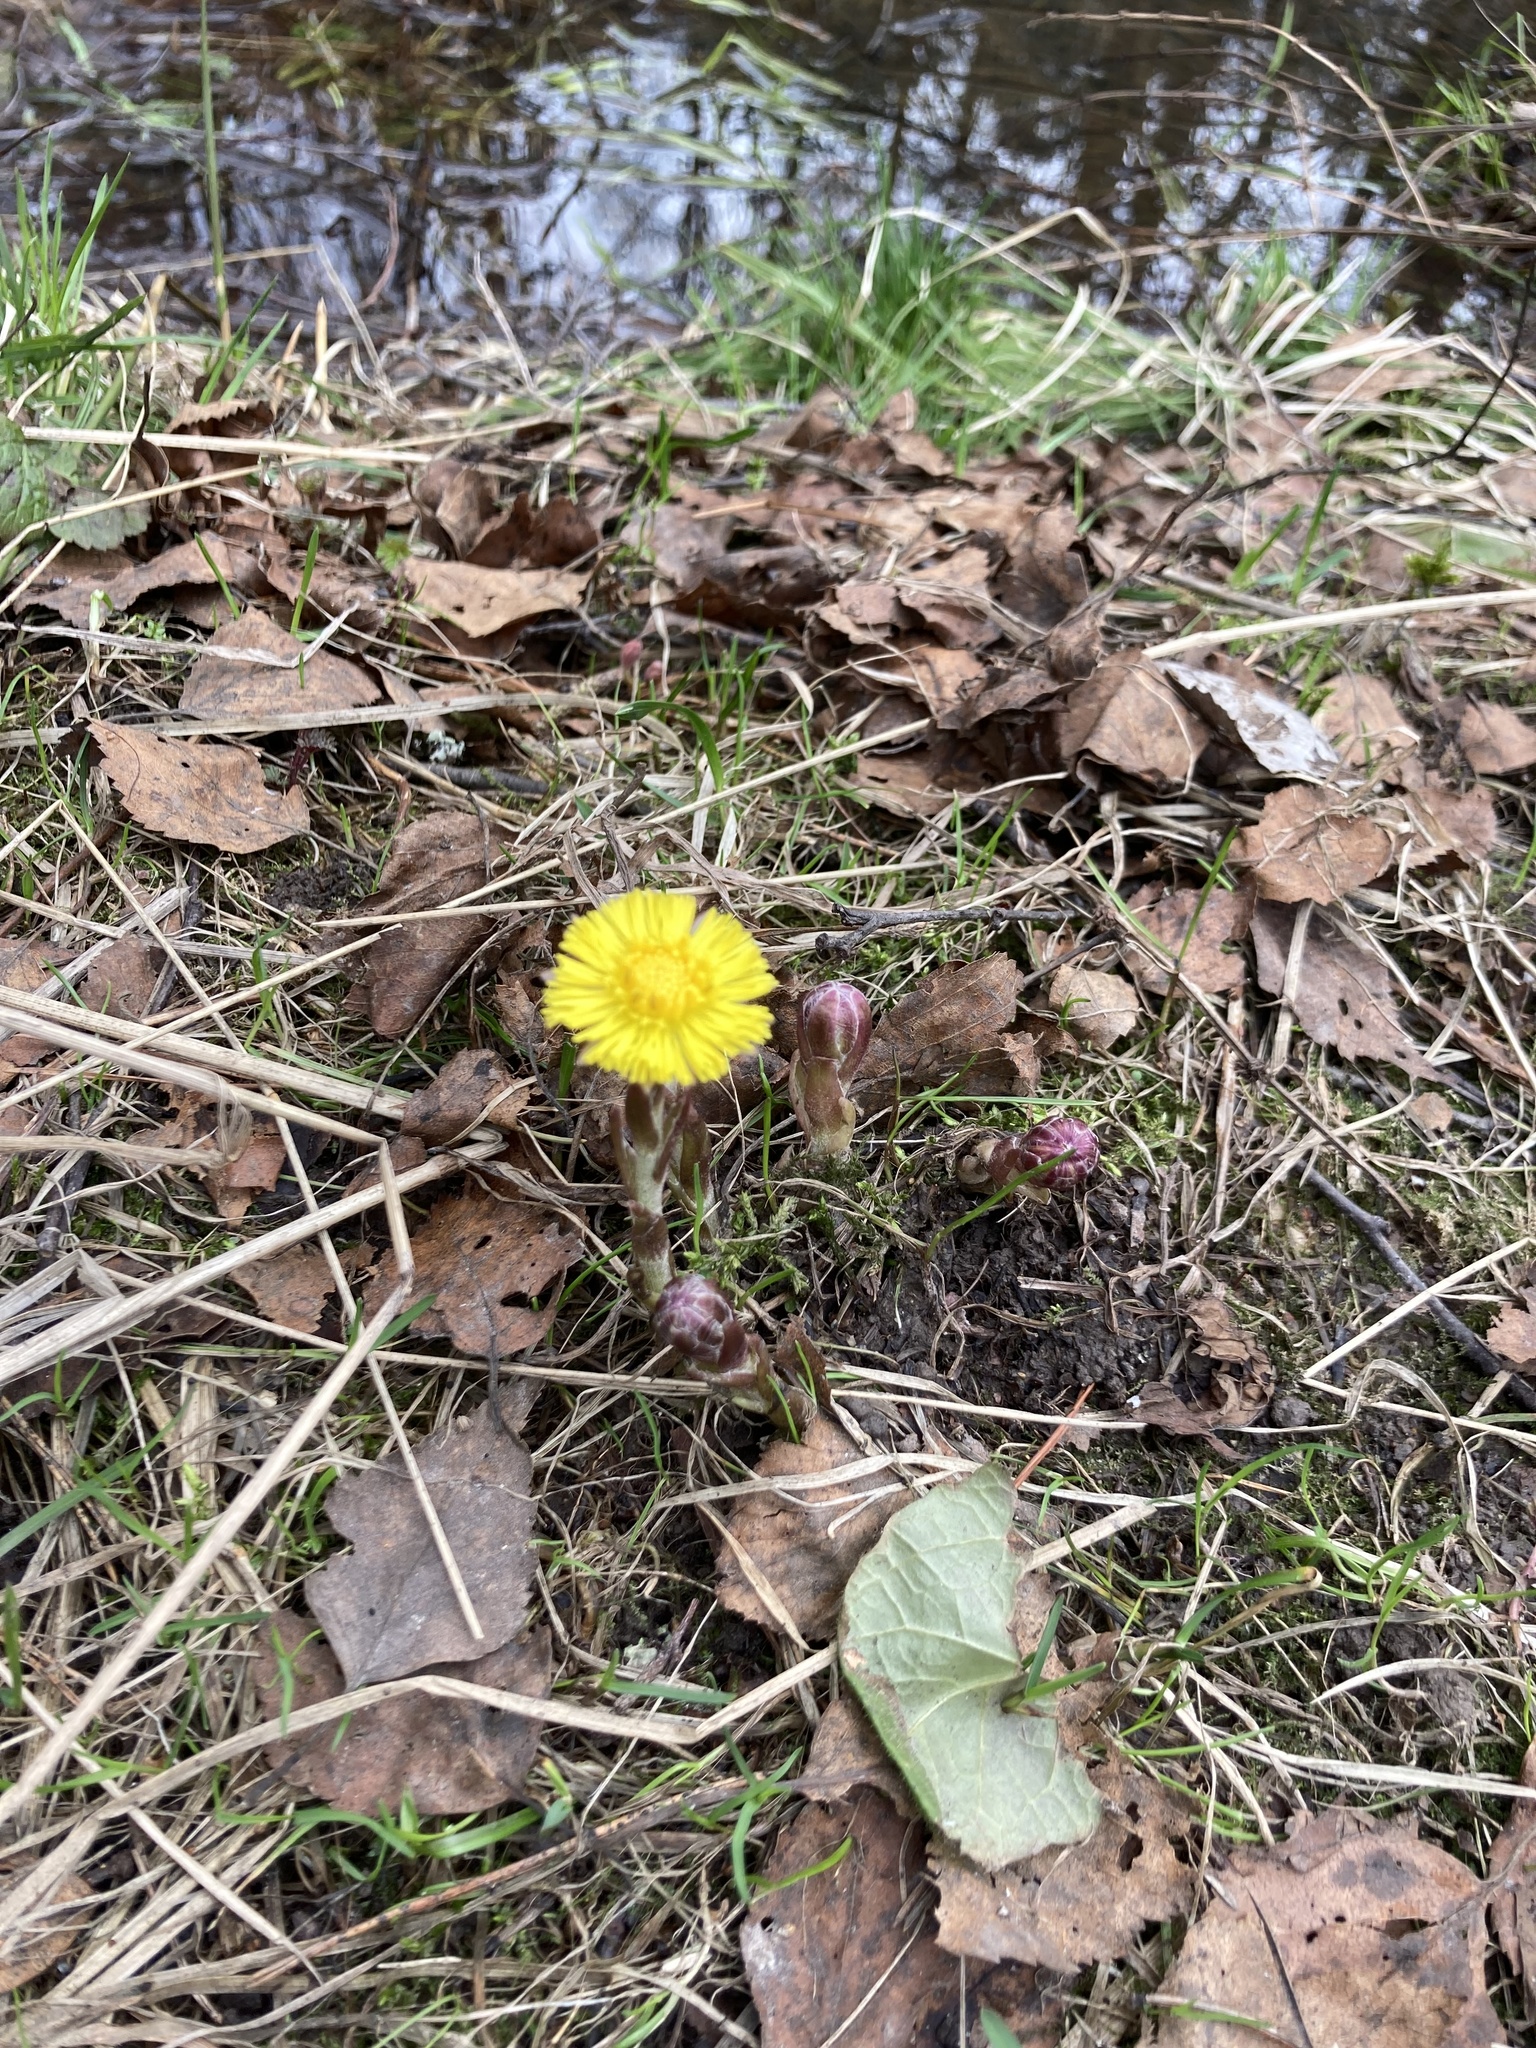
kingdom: Plantae
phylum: Tracheophyta
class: Magnoliopsida
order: Asterales
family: Asteraceae
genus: Tussilago
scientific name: Tussilago farfara
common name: Coltsfoot
